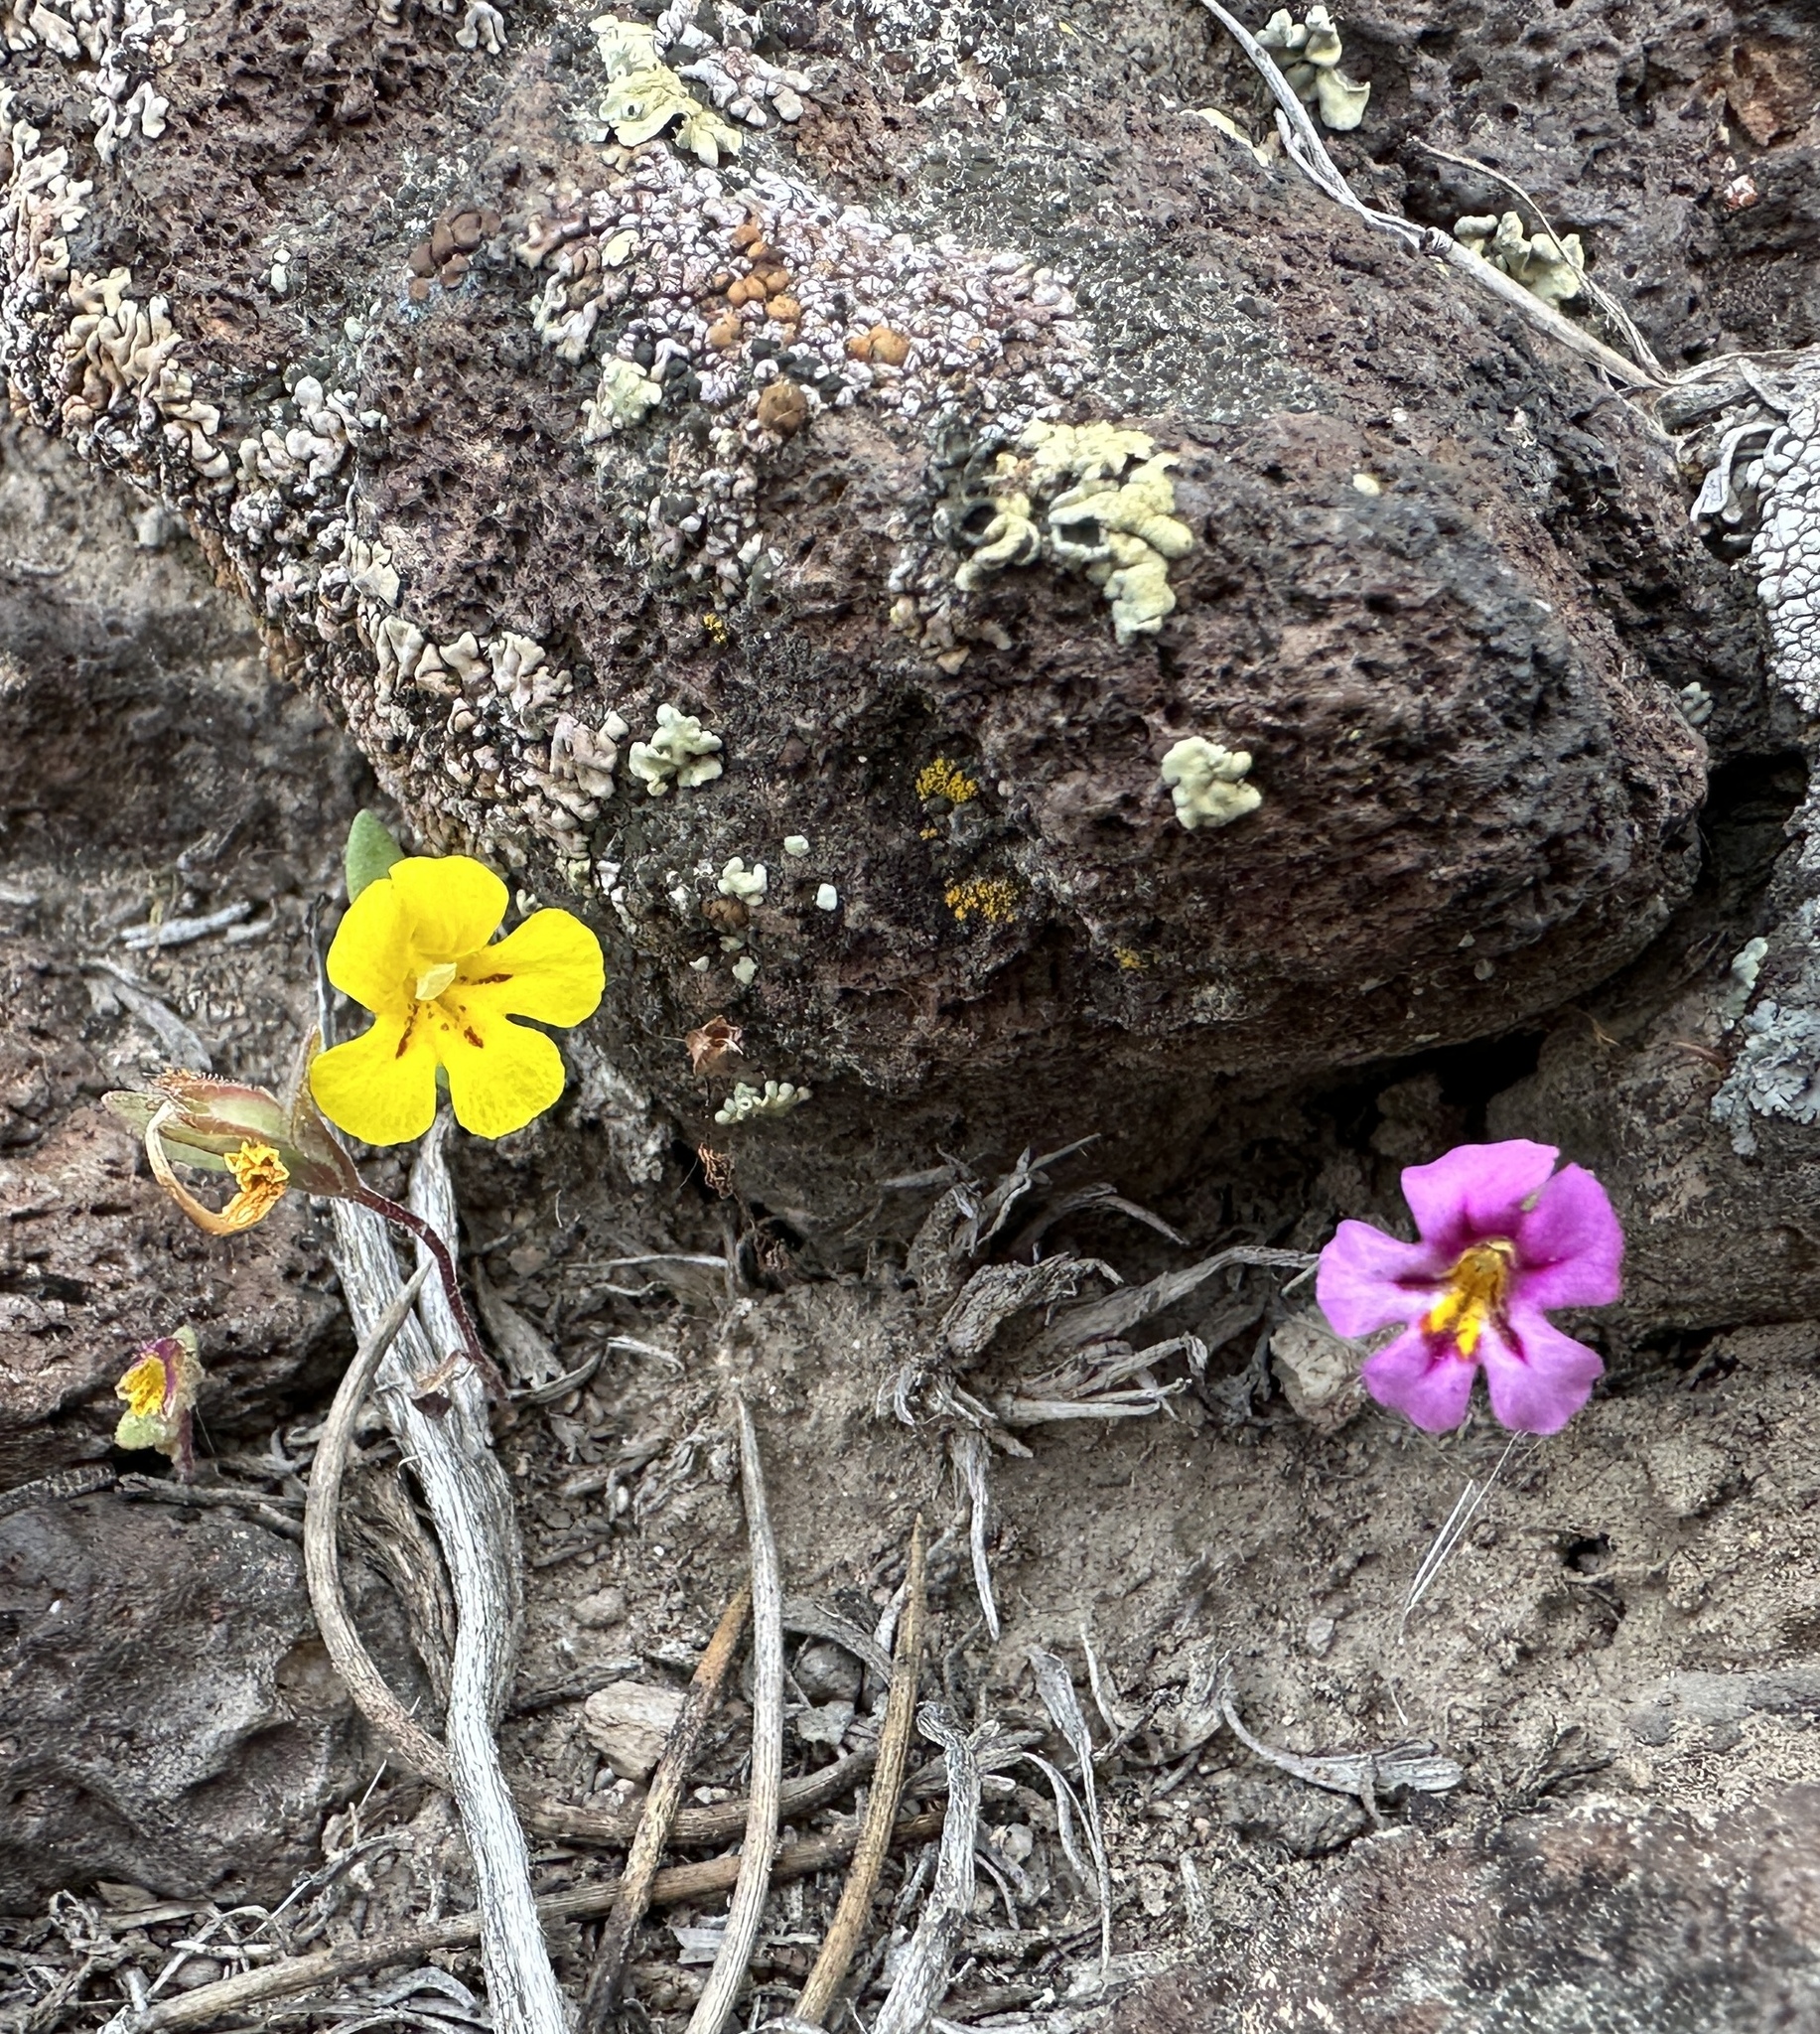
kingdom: Plantae
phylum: Tracheophyta
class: Magnoliopsida
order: Lamiales
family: Phrymaceae
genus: Diplacus
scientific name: Diplacus mephiticus
